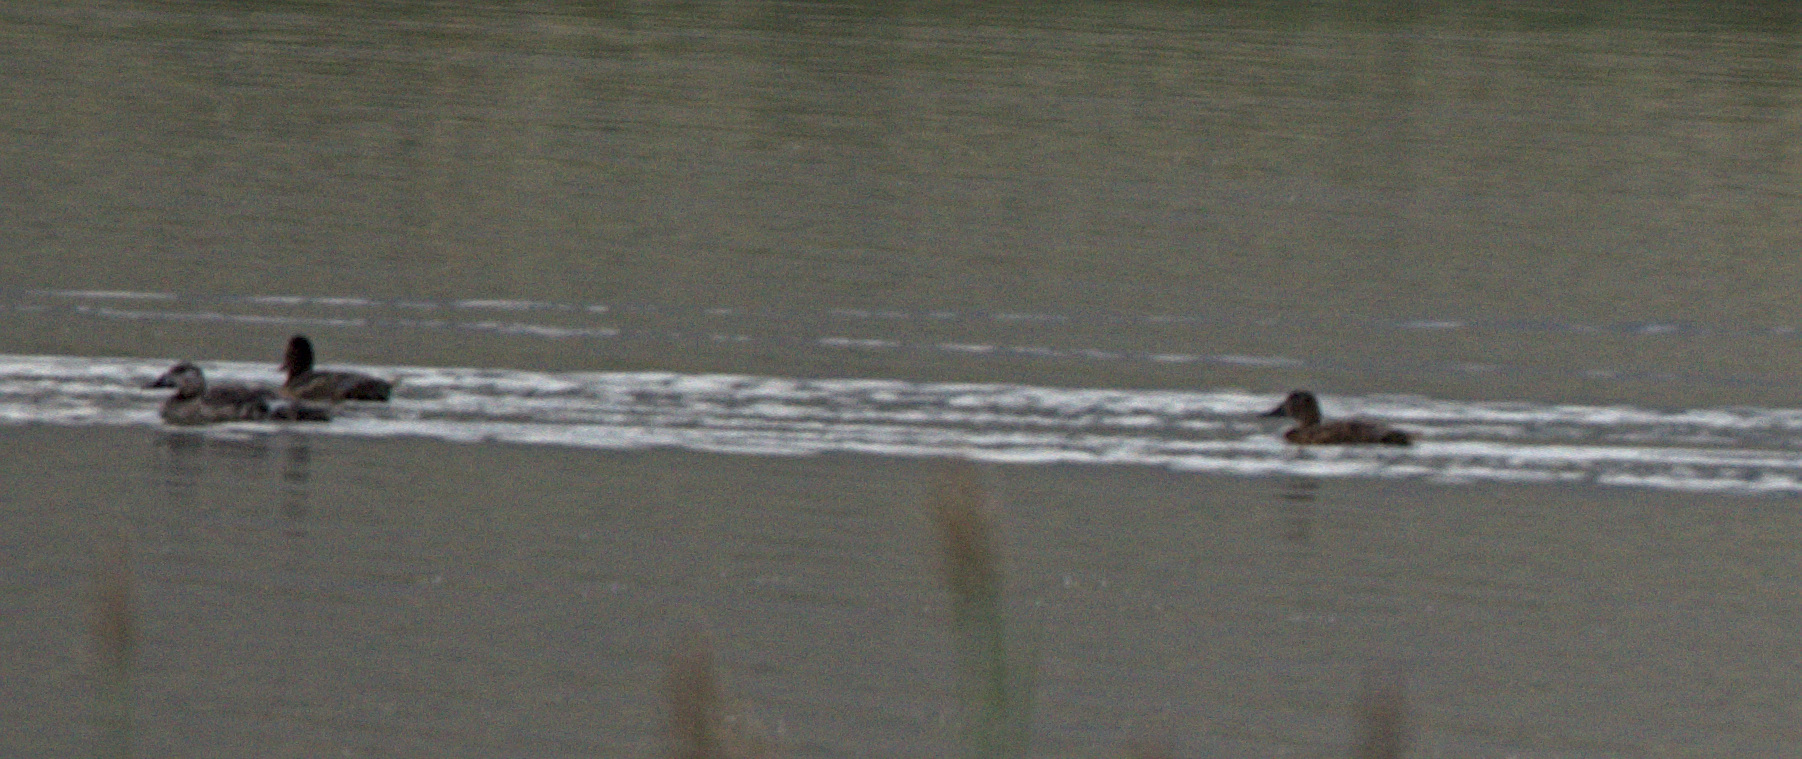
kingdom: Animalia
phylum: Chordata
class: Aves
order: Anseriformes
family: Anatidae
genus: Mareca
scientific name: Mareca strepera
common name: Gadwall
